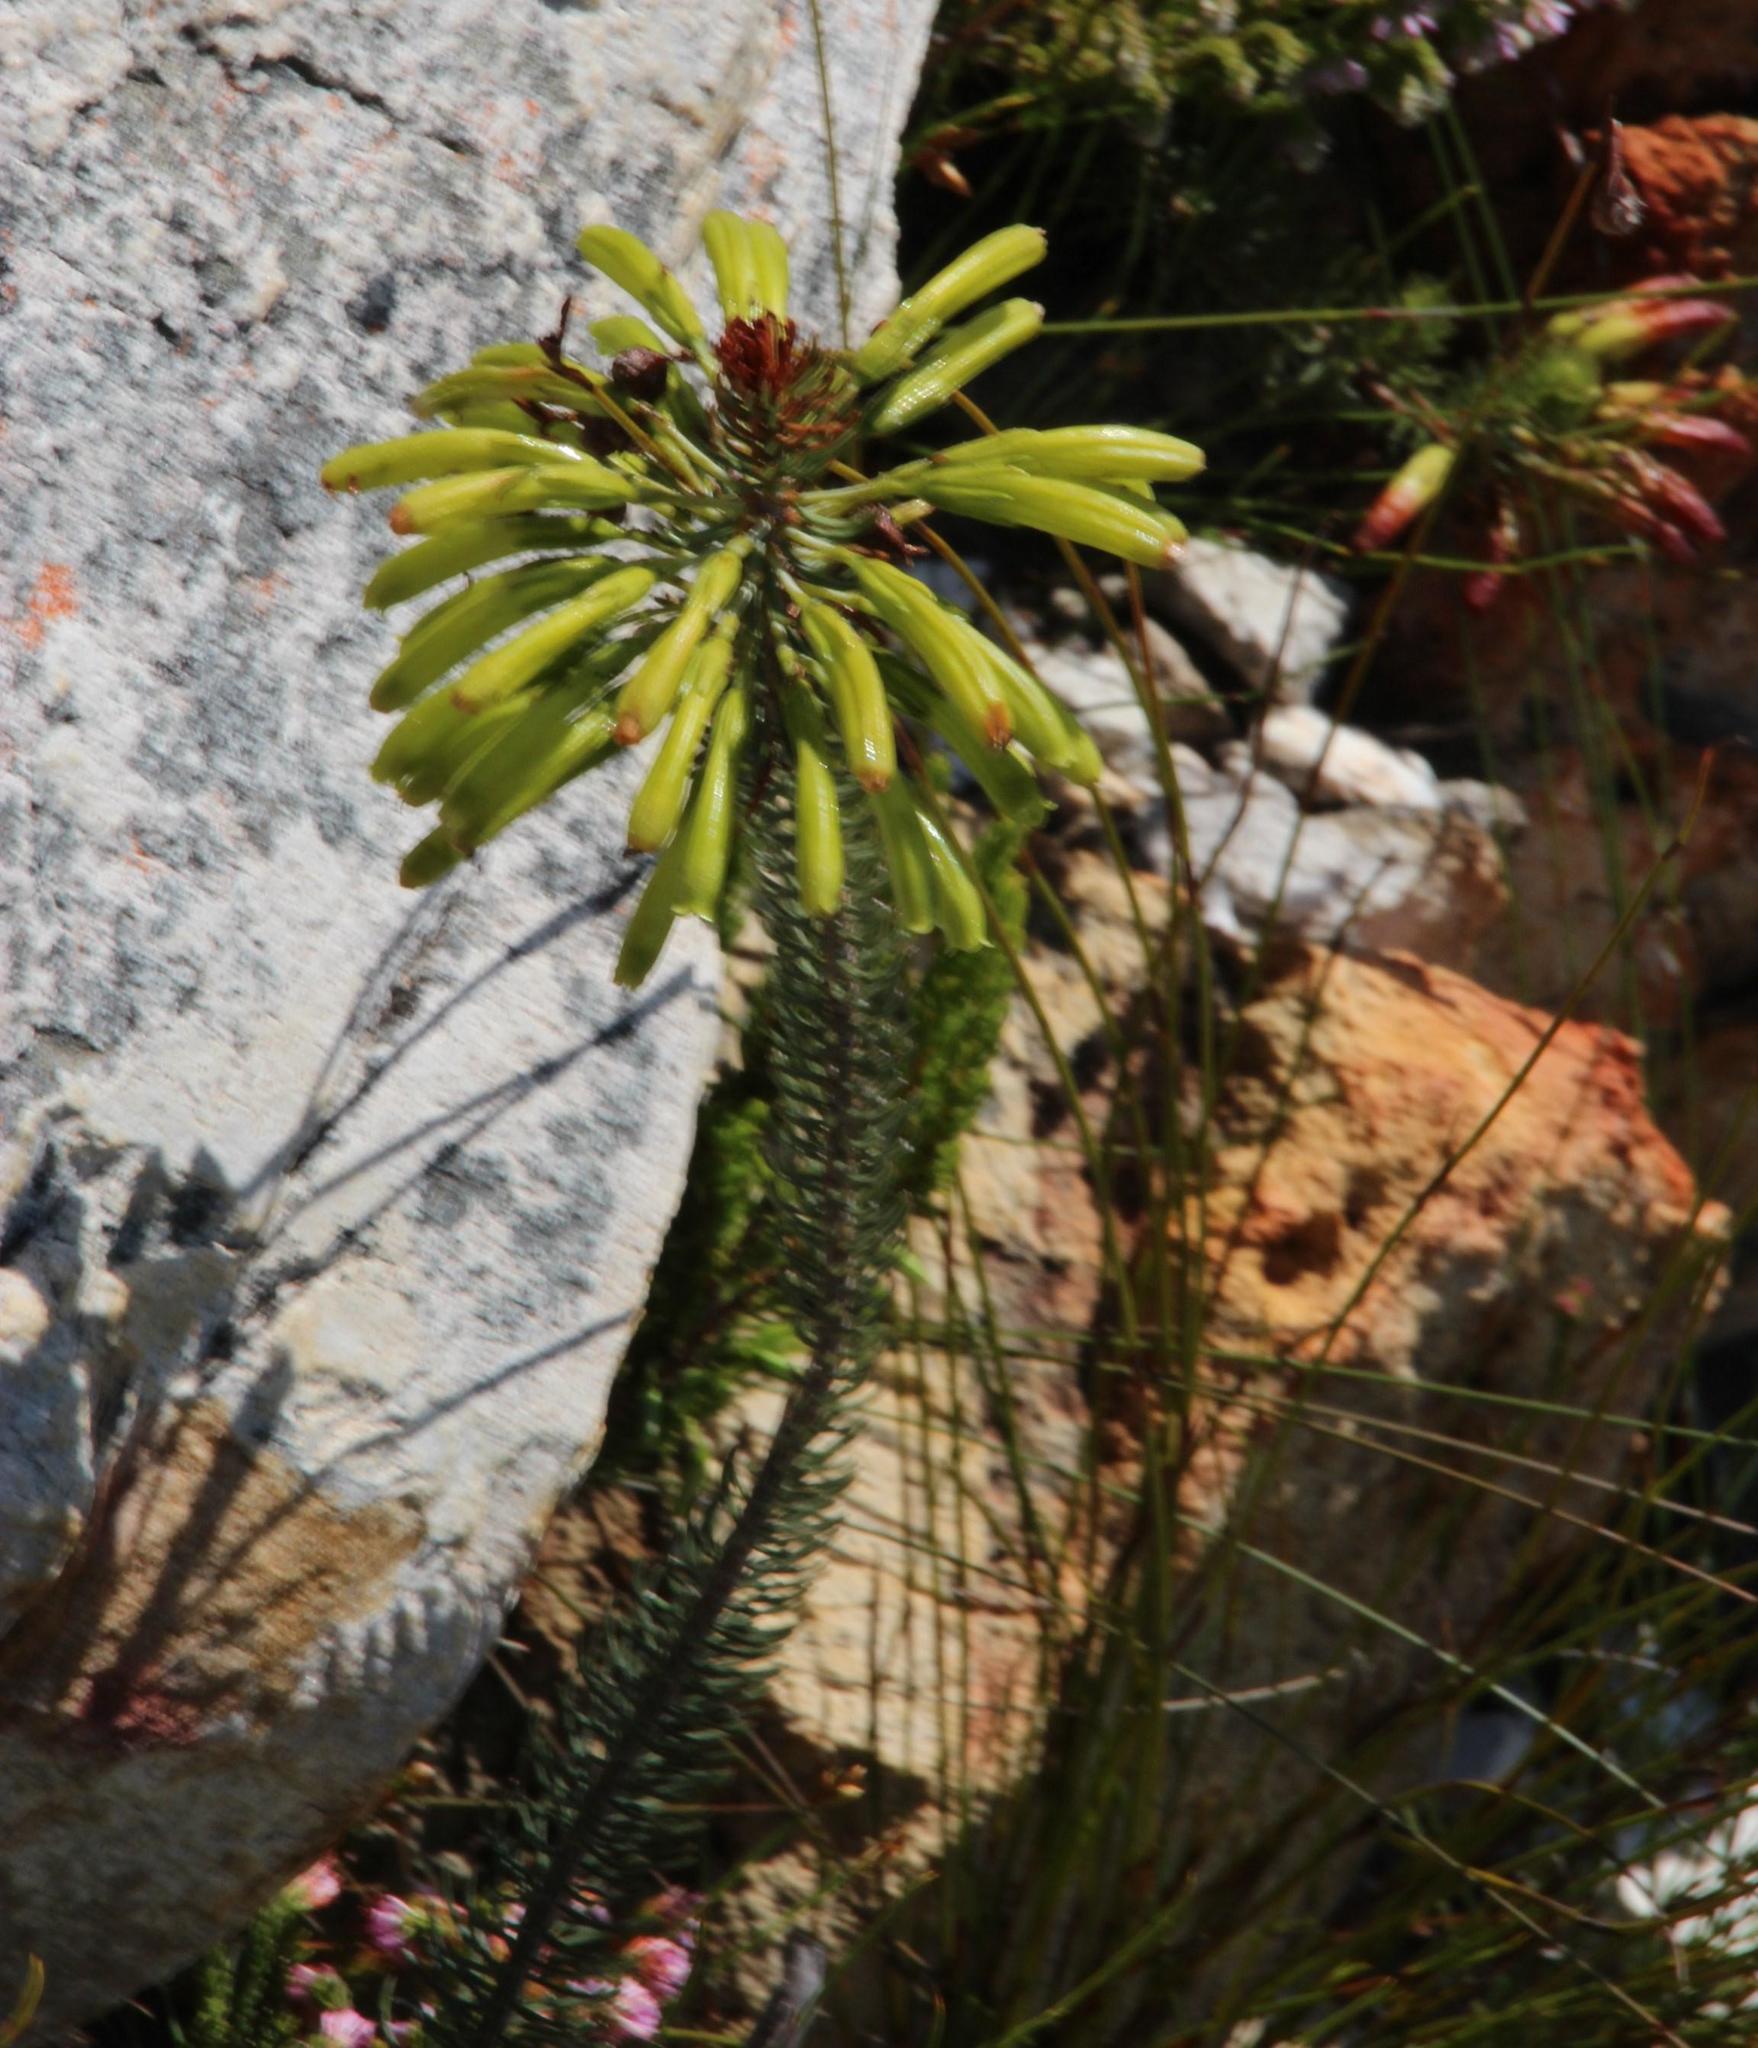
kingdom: Plantae
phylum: Tracheophyta
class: Magnoliopsida
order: Ericales
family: Ericaceae
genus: Erica
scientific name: Erica thomae
